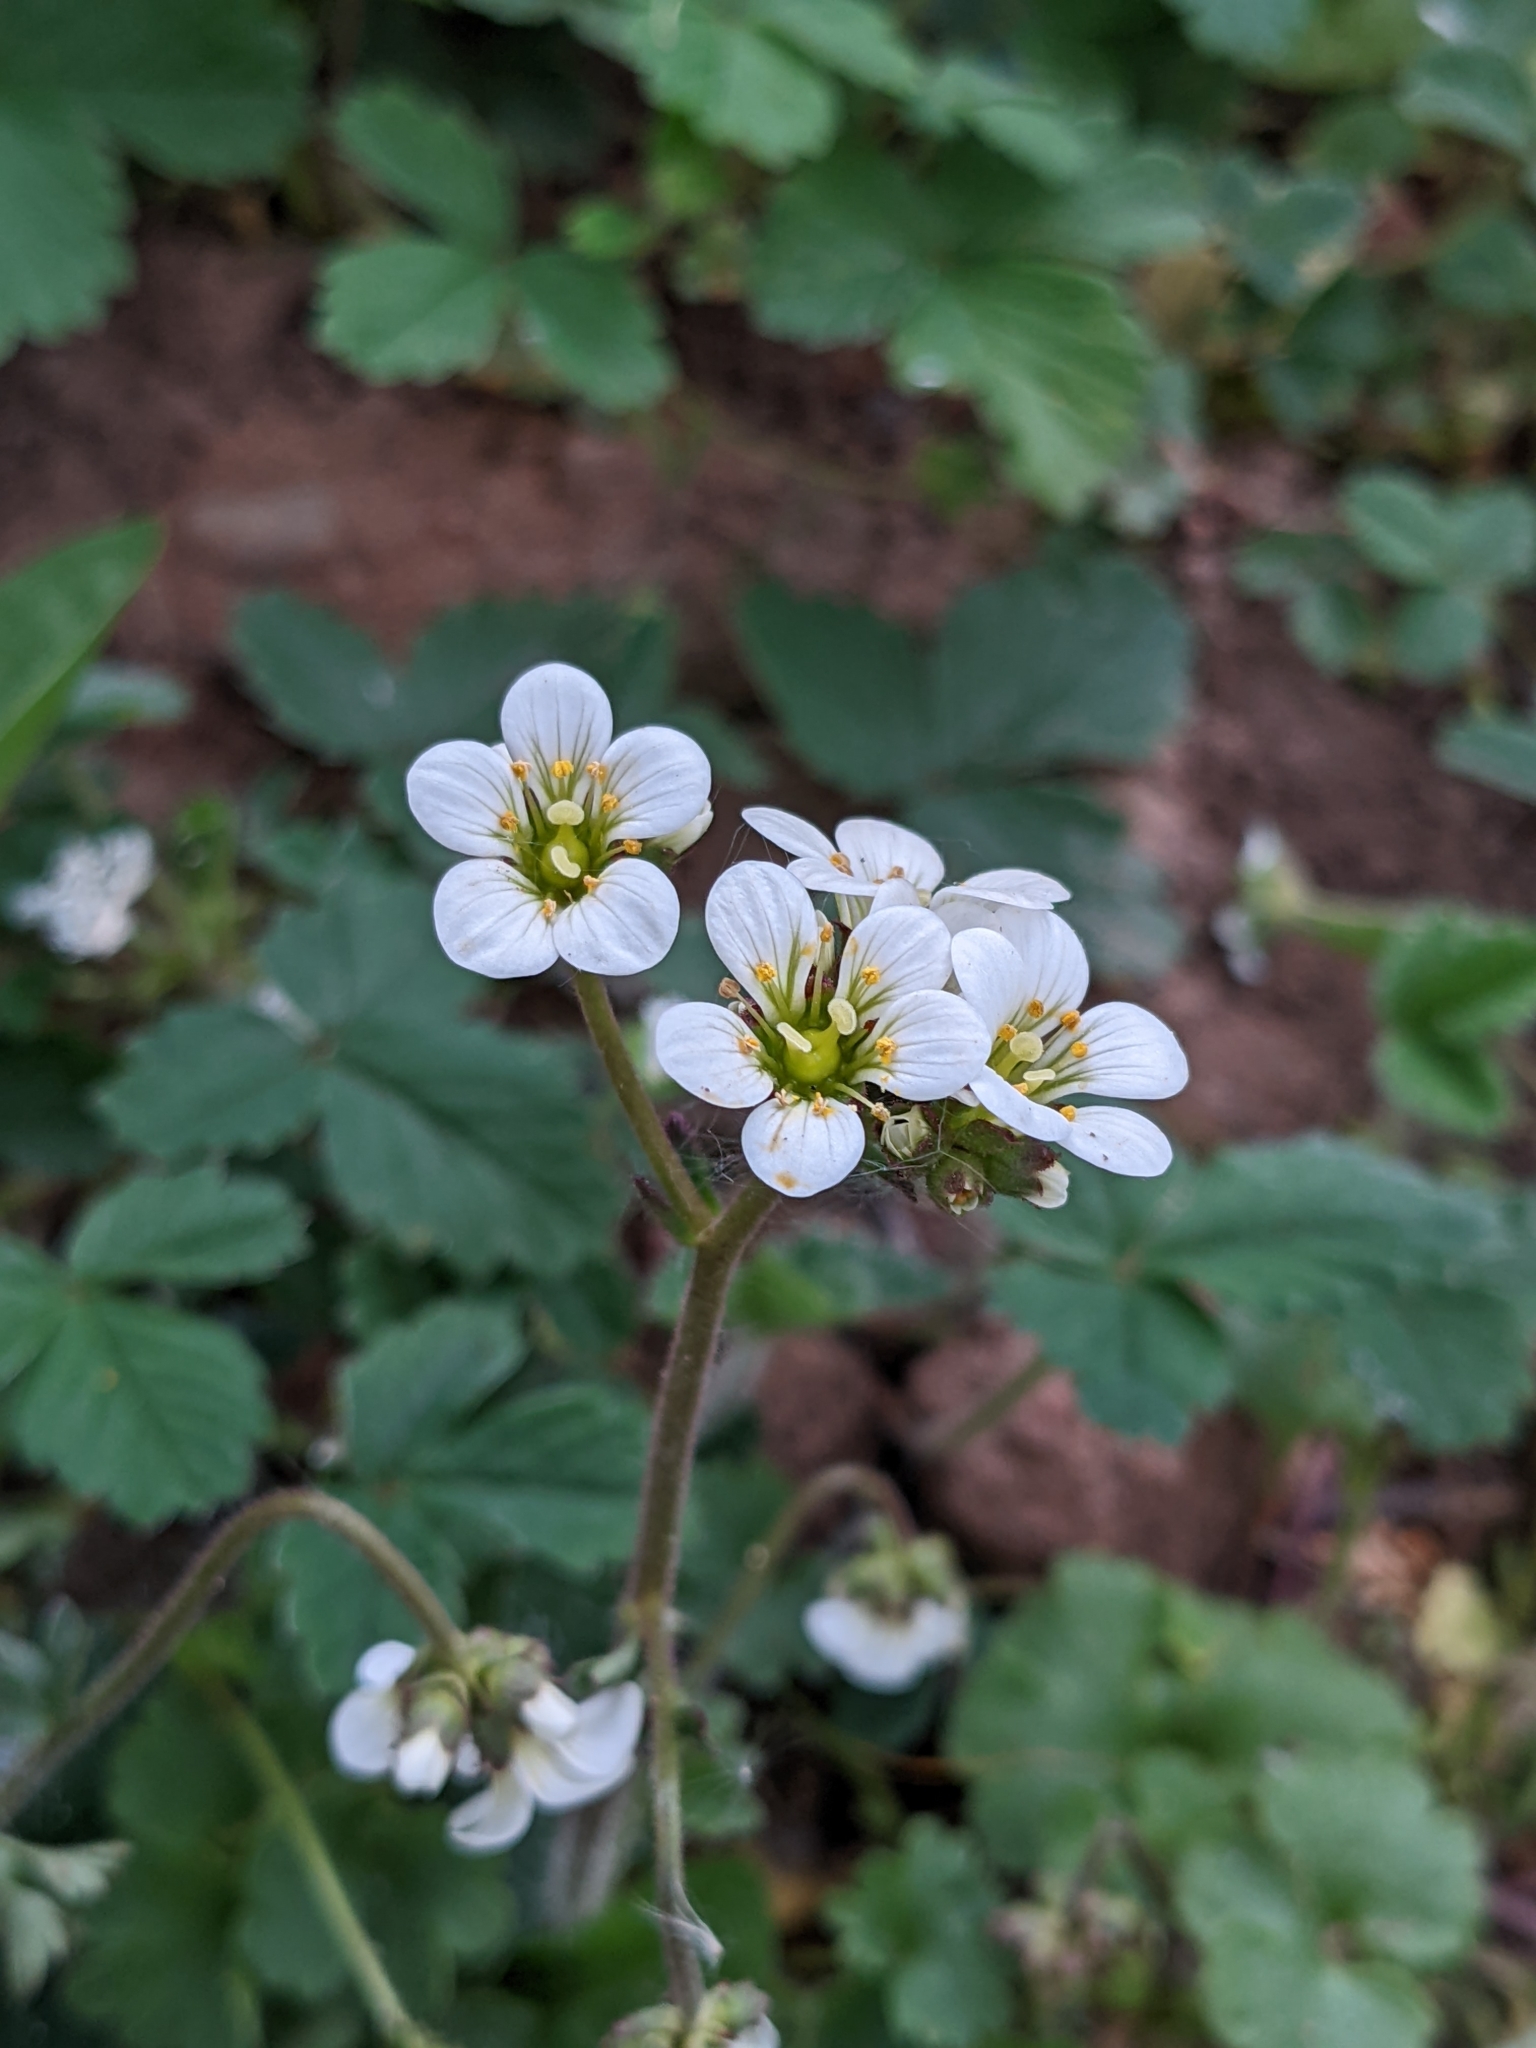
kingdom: Plantae
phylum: Tracheophyta
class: Magnoliopsida
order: Saxifragales
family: Saxifragaceae
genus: Saxifraga
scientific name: Saxifraga granulata
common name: Meadow saxifrage
